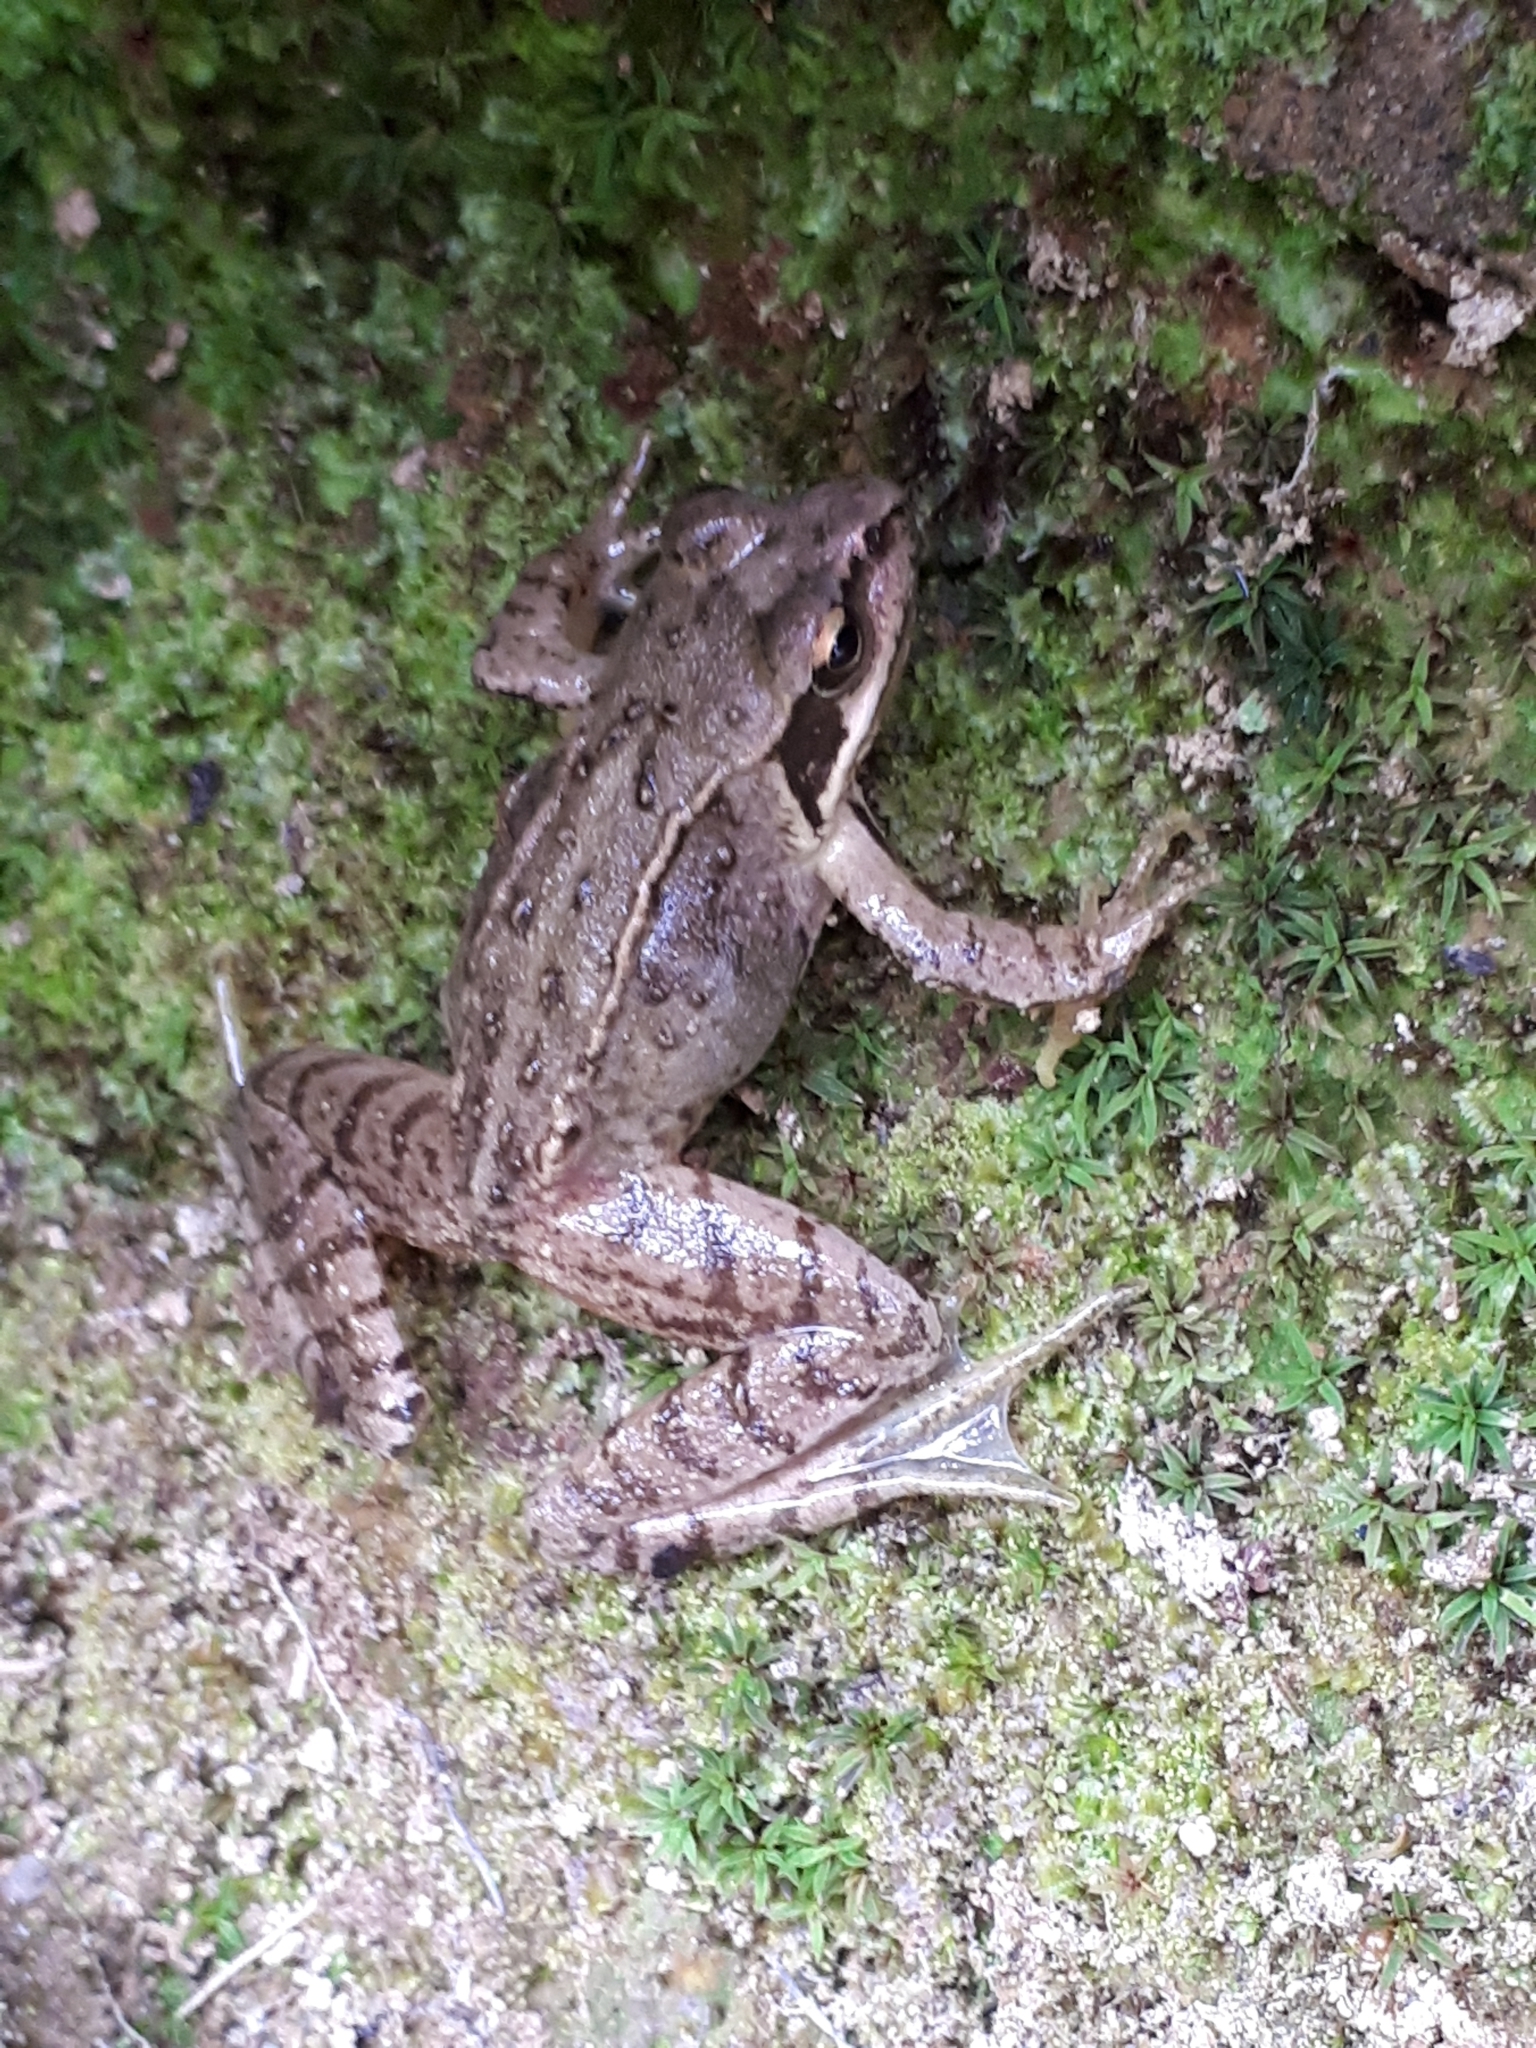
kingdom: Animalia
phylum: Chordata
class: Amphibia
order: Anura
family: Ranidae
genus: Rana
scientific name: Rana dalmatina
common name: Agile frog
